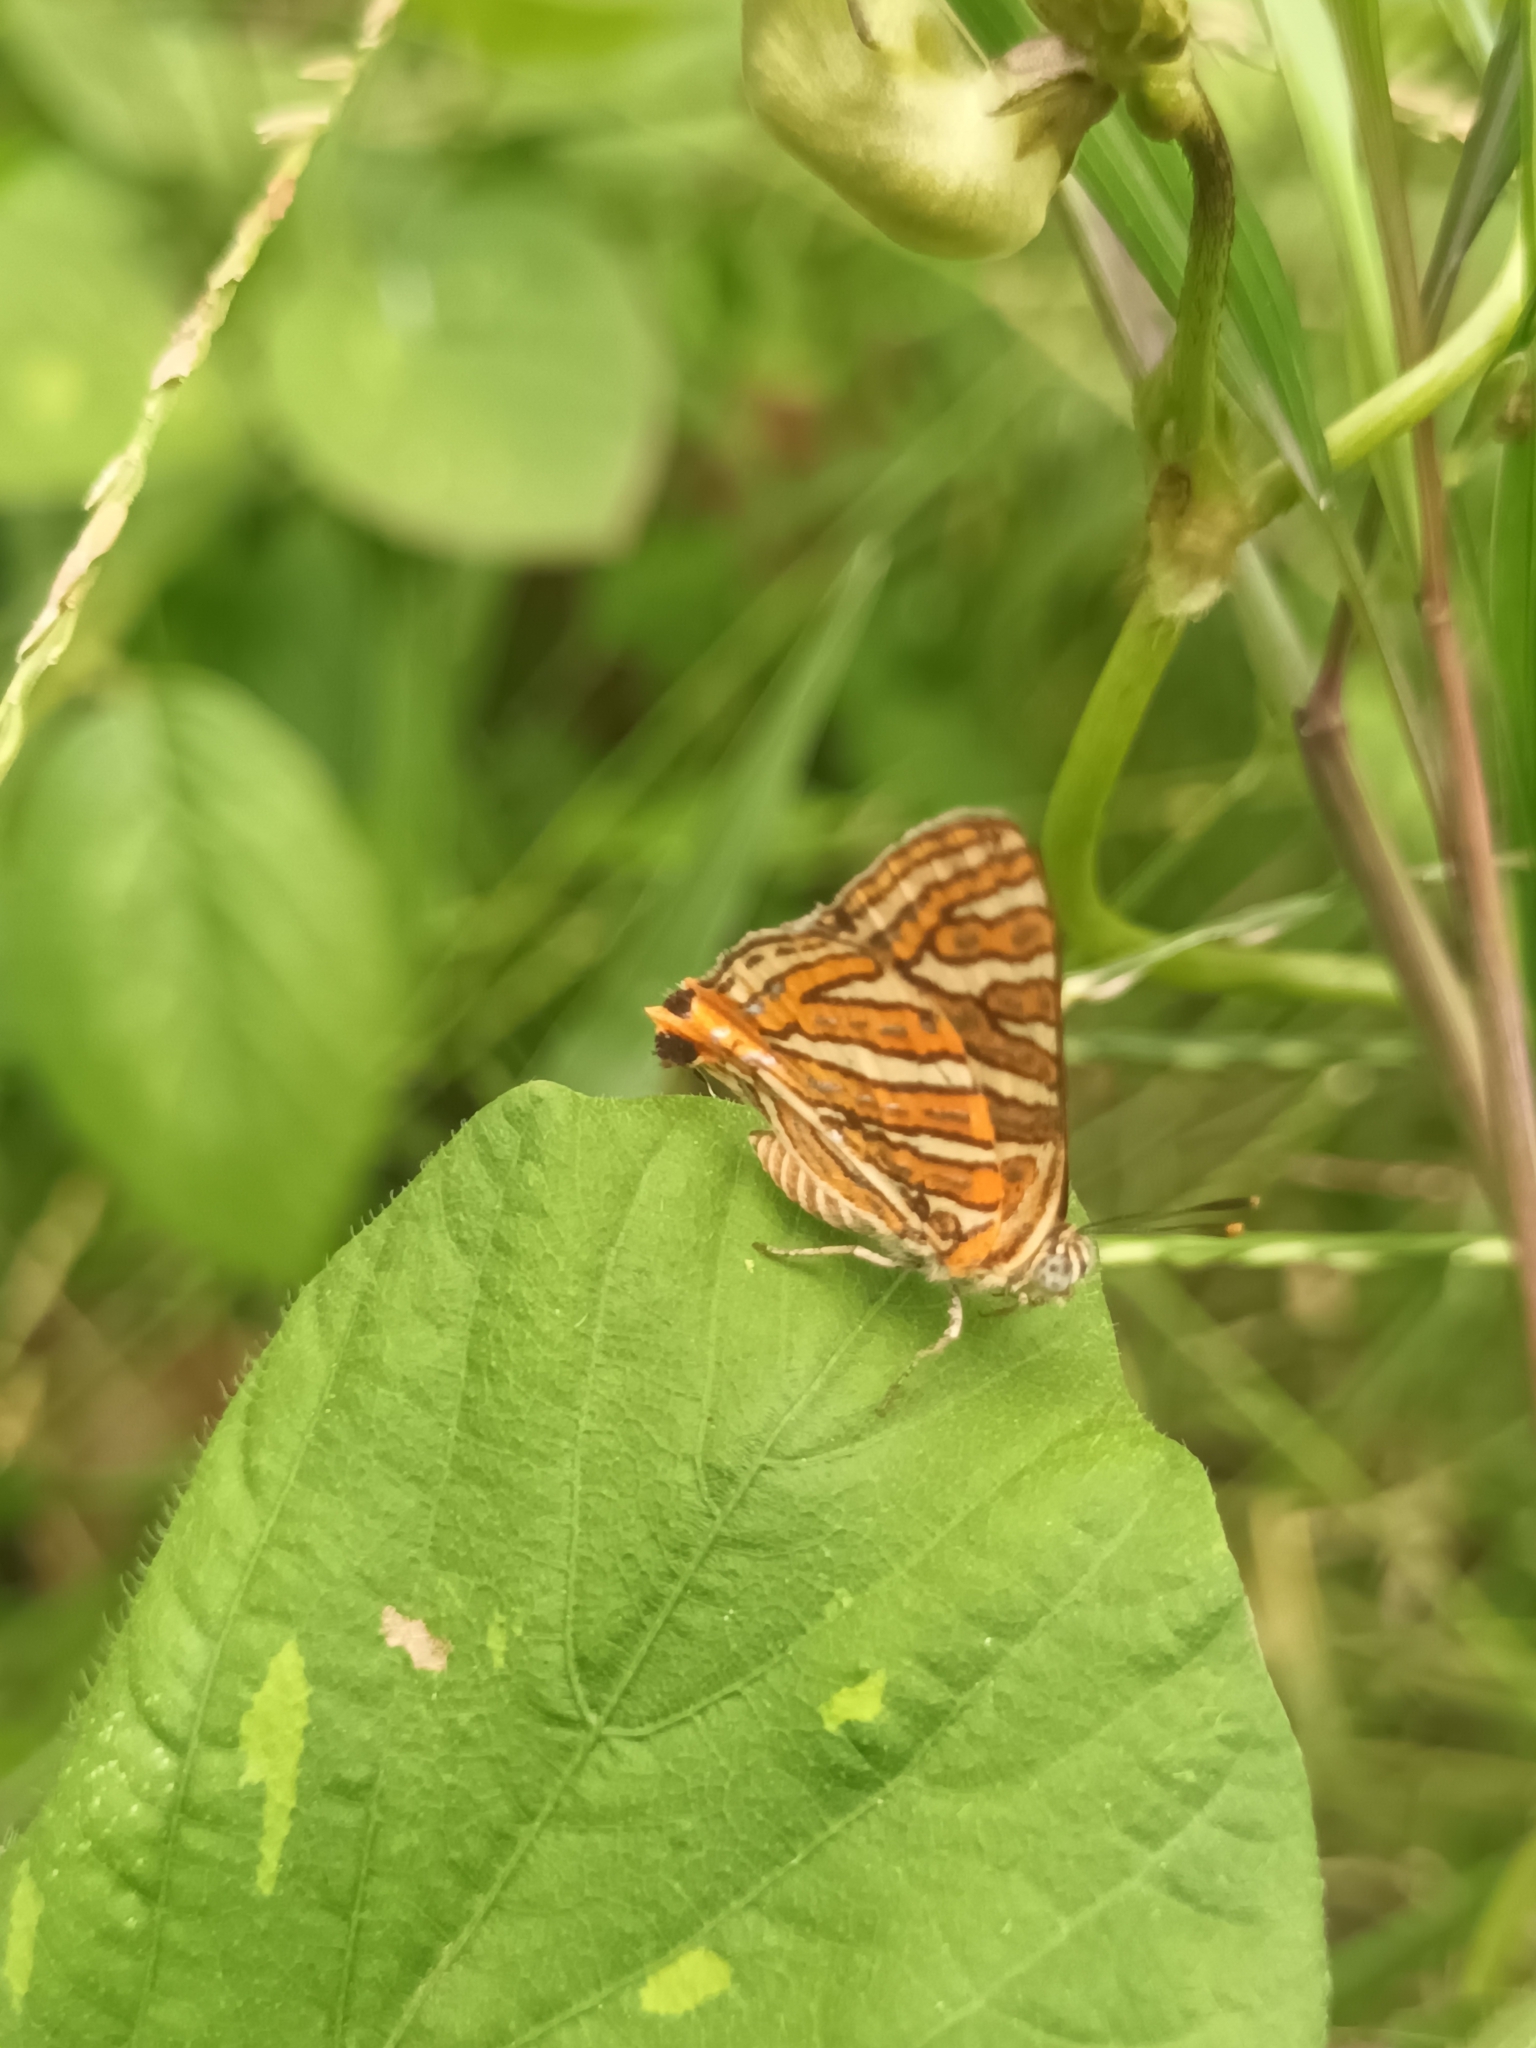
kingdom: Animalia
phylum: Arthropoda
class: Insecta
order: Lepidoptera
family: Lycaenidae
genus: Cigaritis
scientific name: Cigaritis vulcanus
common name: Common silverline
